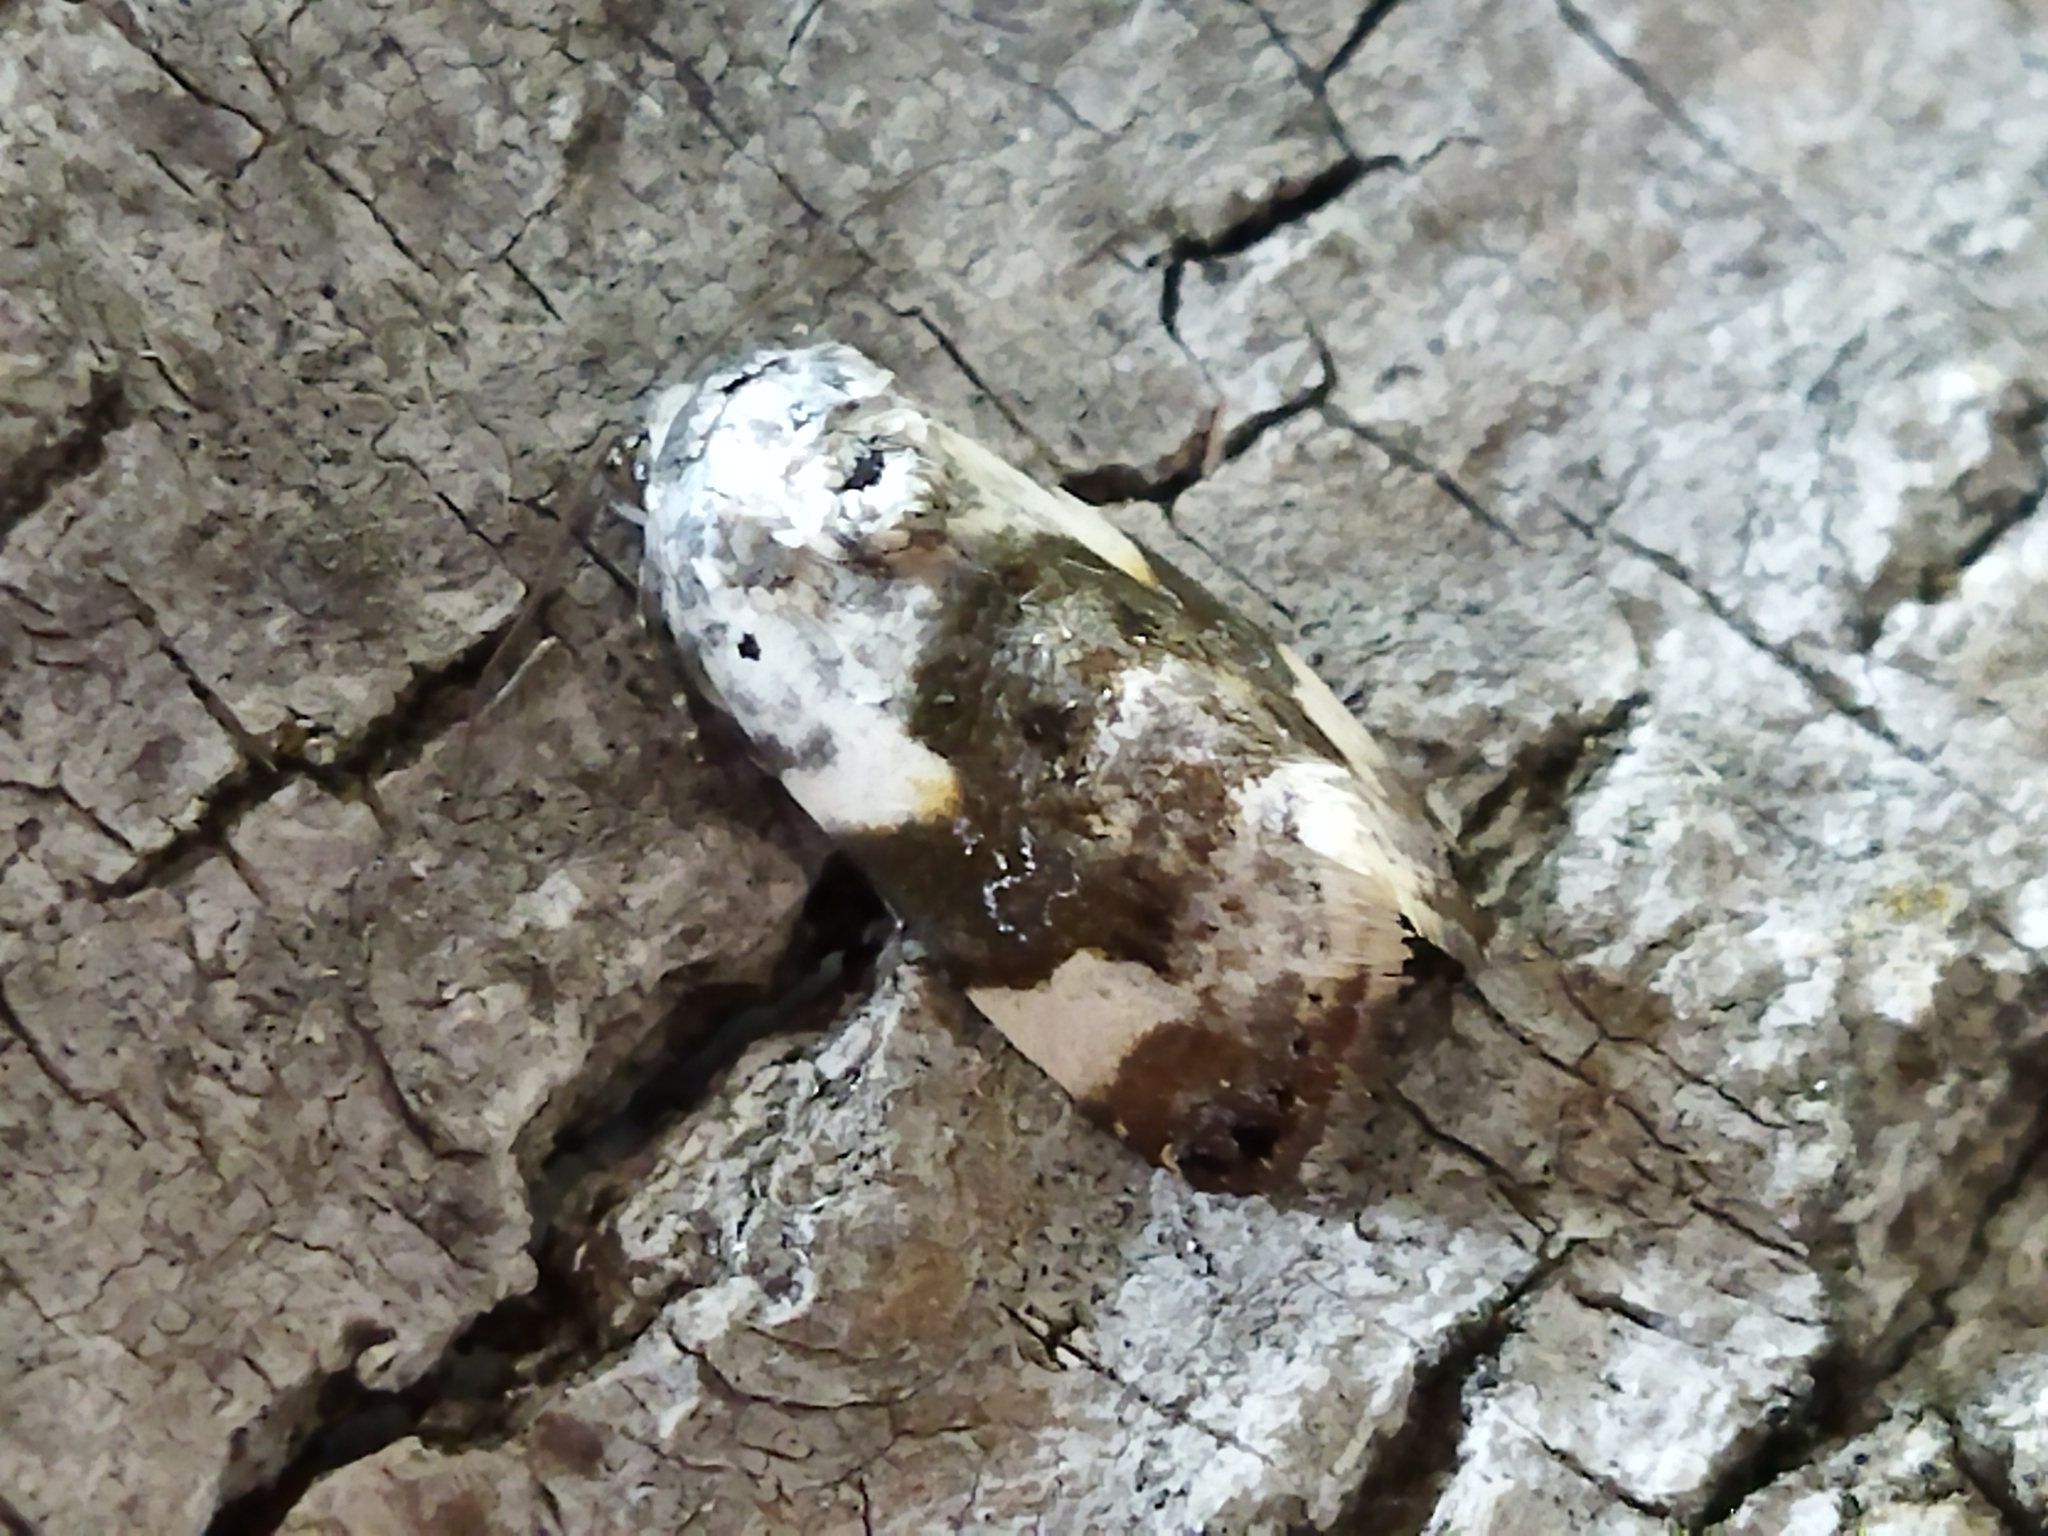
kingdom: Animalia
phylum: Arthropoda
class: Insecta
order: Lepidoptera
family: Noctuidae
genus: Acontia
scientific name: Acontia lucida
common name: Pale shoulder
